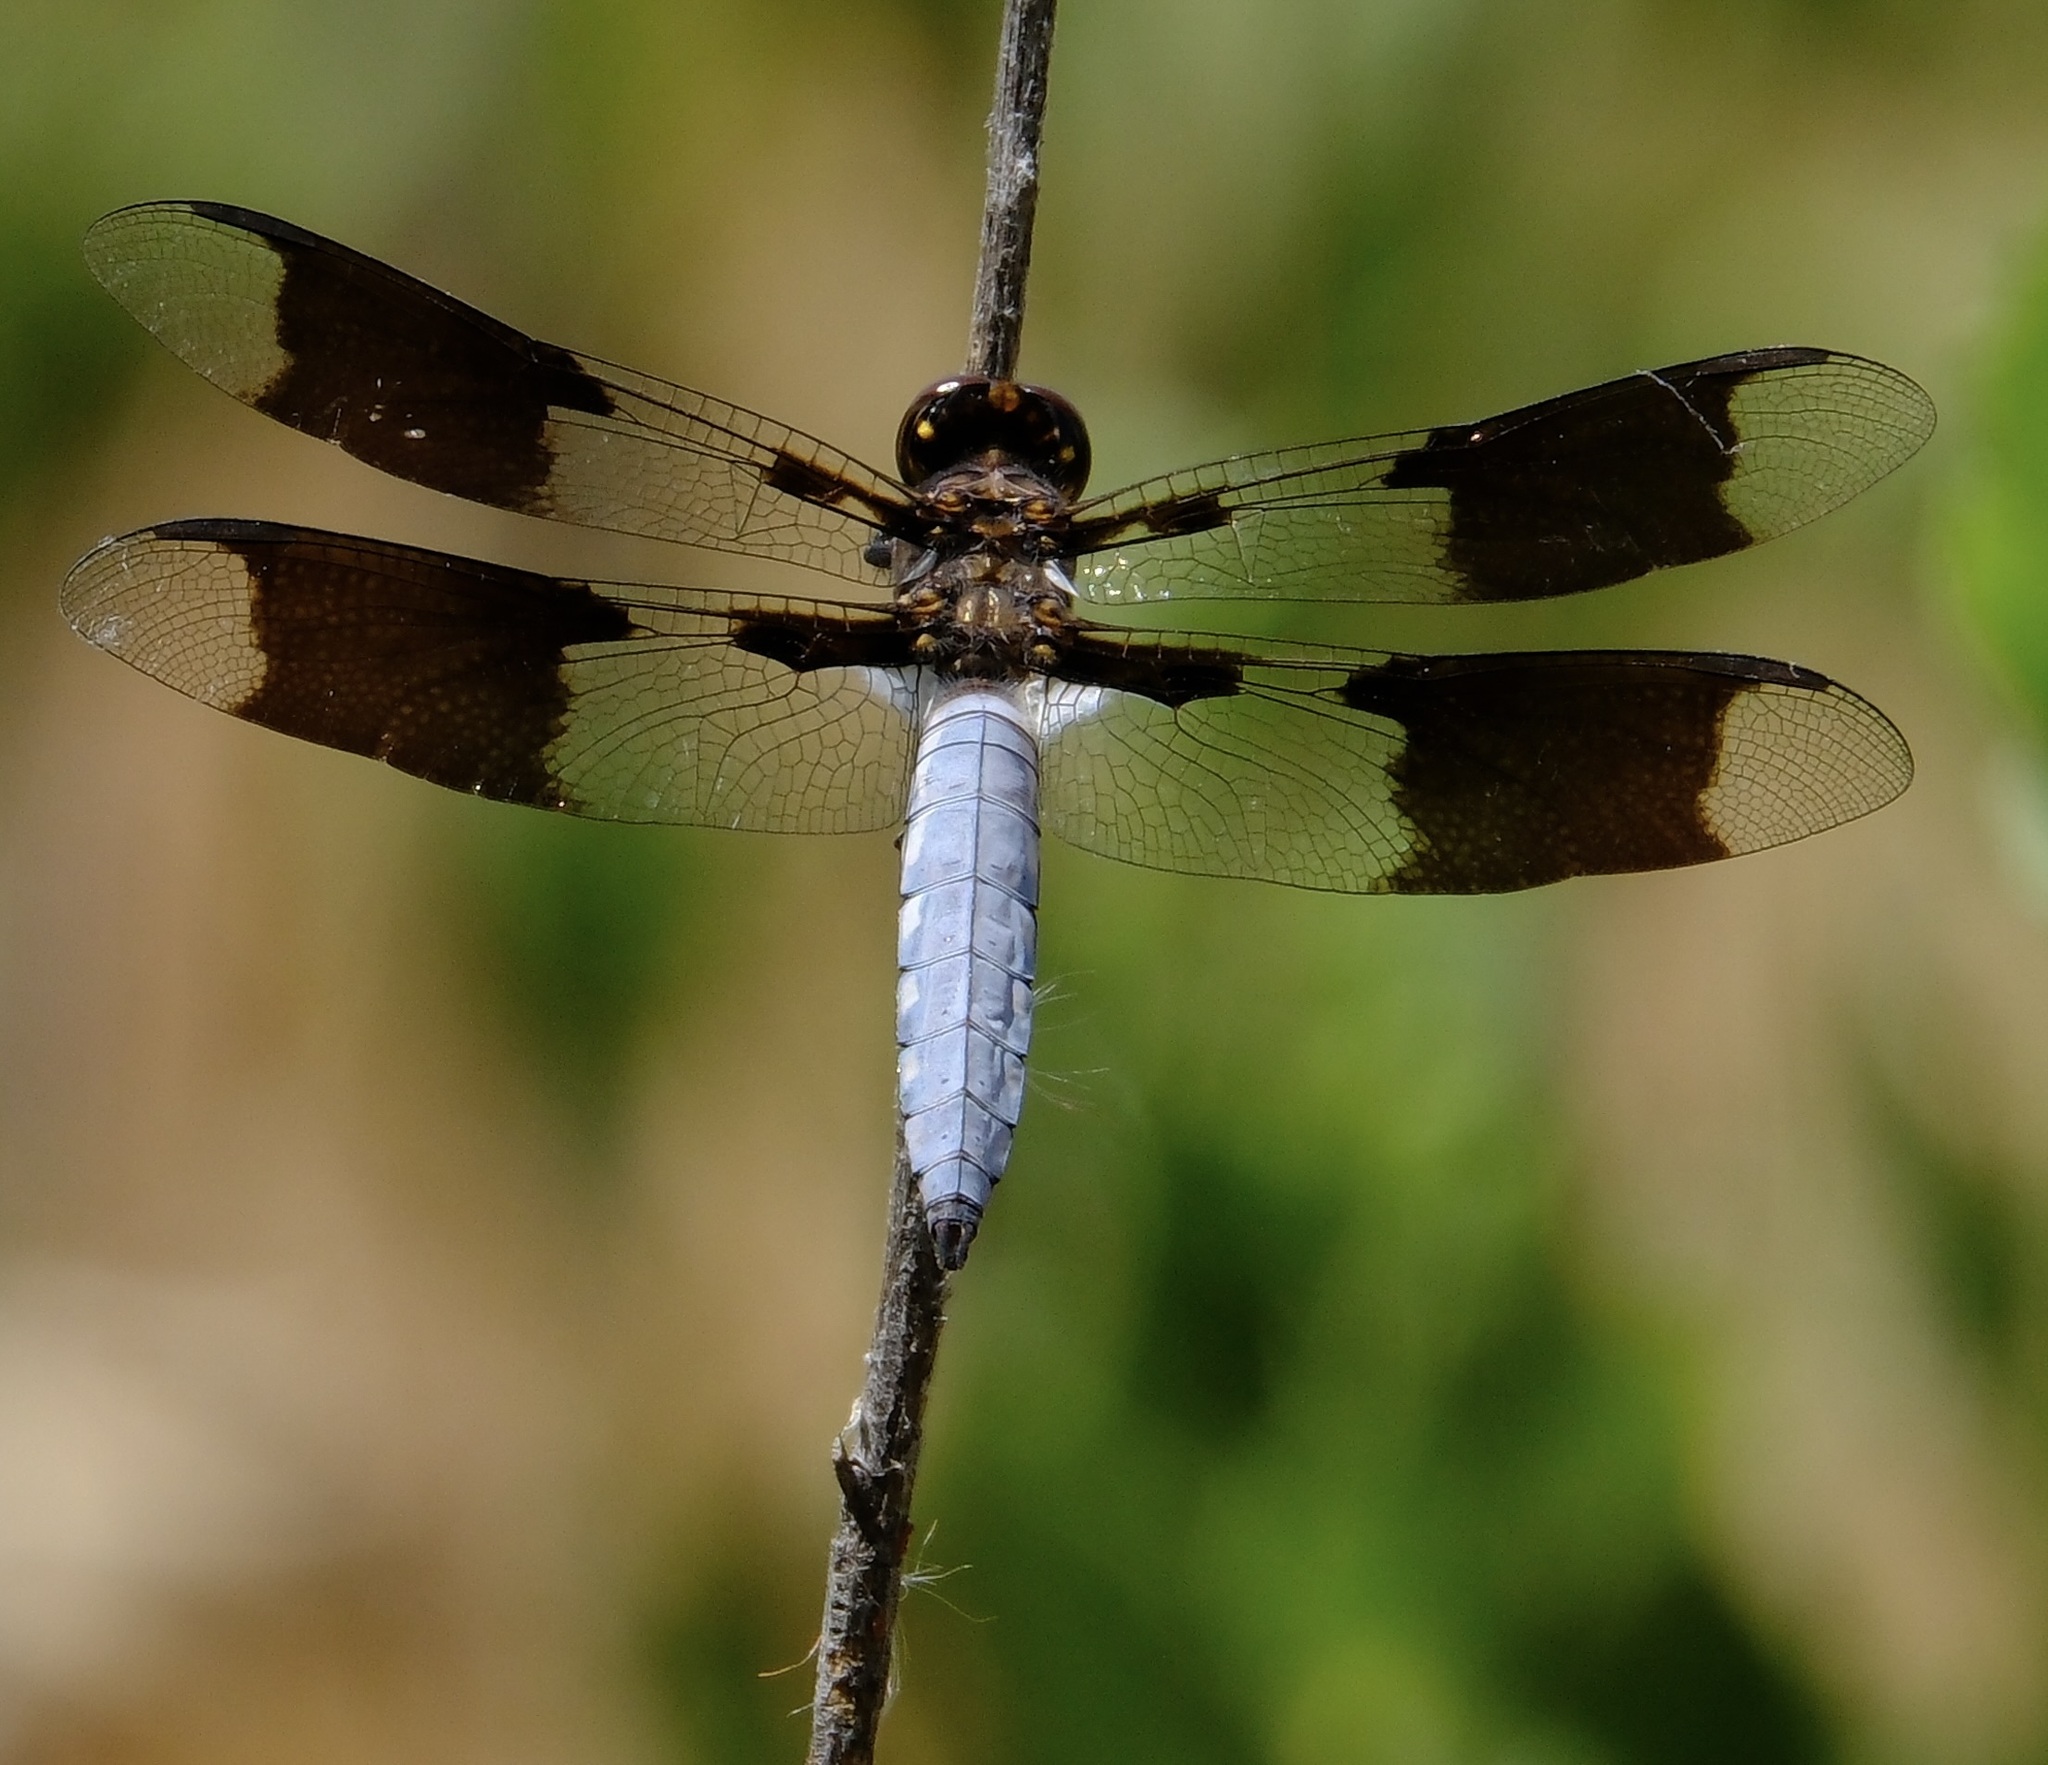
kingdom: Animalia
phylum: Arthropoda
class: Insecta
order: Odonata
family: Libellulidae
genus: Plathemis
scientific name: Plathemis lydia
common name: Common whitetail
